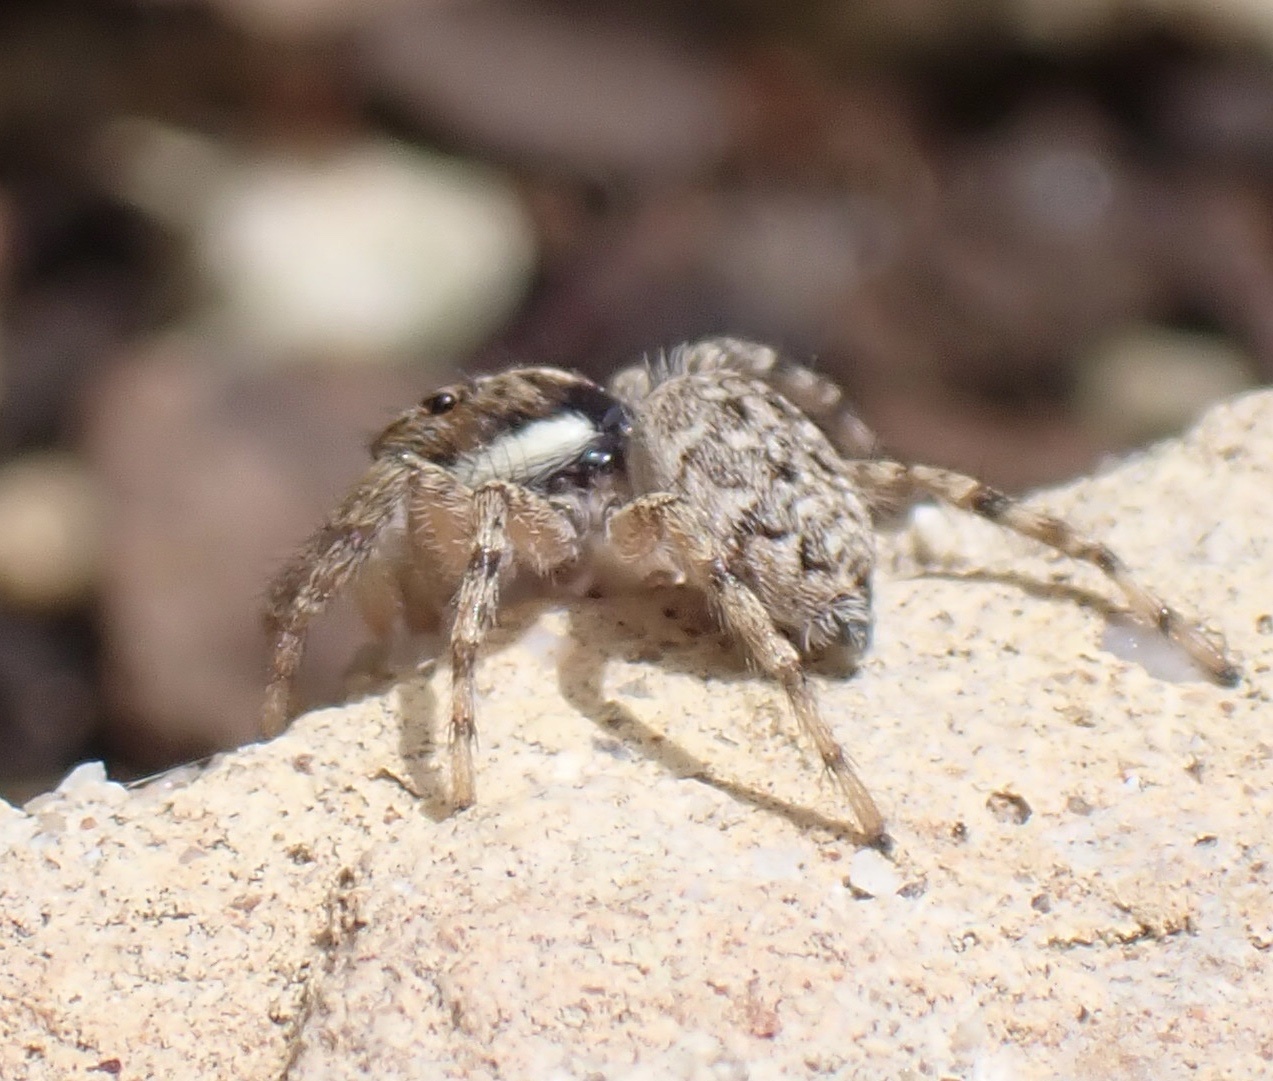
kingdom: Animalia
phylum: Arthropoda
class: Arachnida
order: Araneae
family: Salticidae
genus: Menemerus
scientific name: Menemerus semilimbatus
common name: Jumping spider
